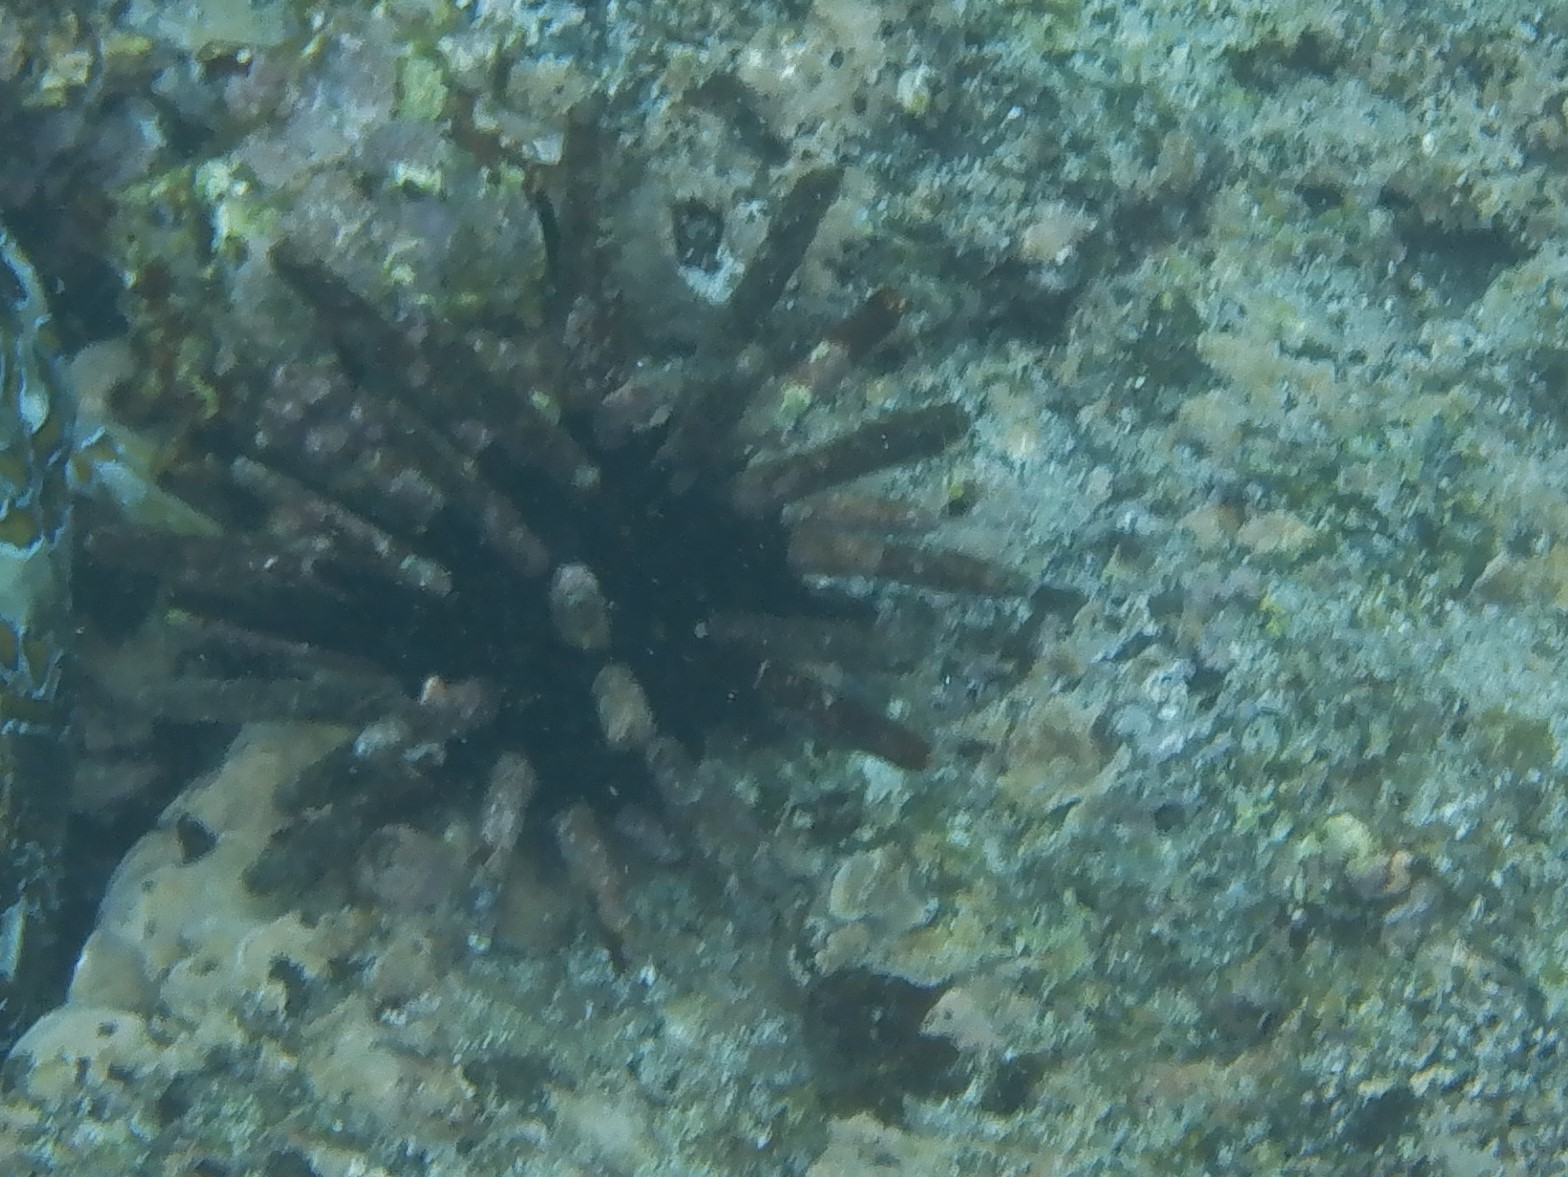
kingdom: Animalia
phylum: Echinodermata
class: Echinoidea
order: Cidaroida
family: Cidaridae
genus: Eucidaris
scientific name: Eucidaris galapagensis
